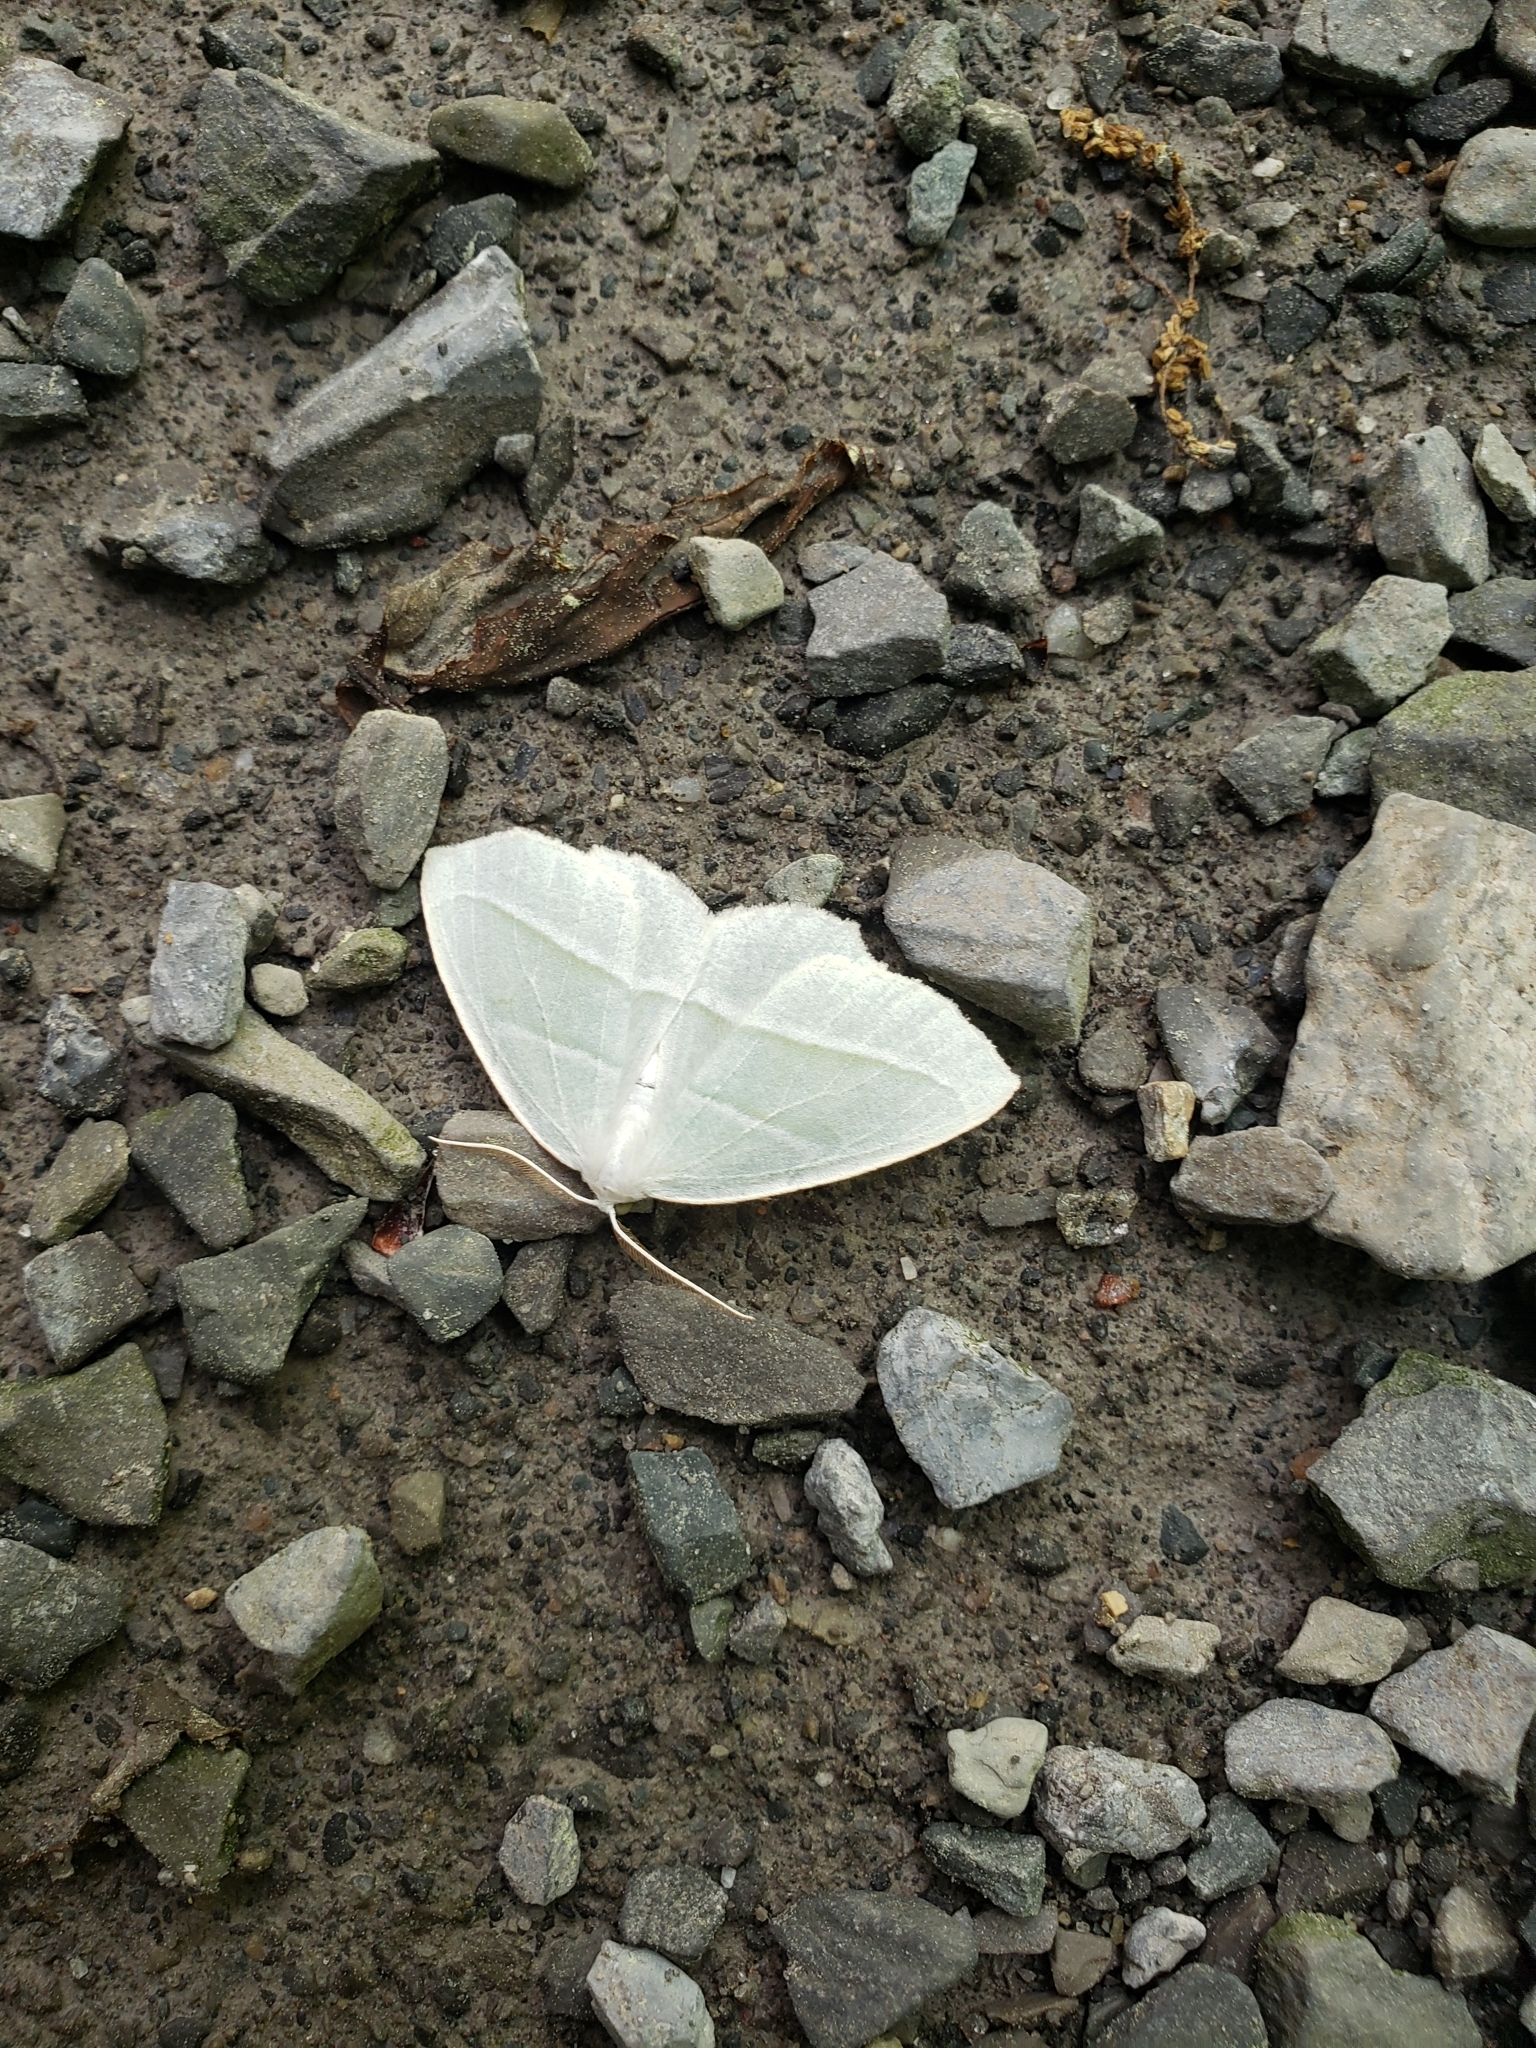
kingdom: Animalia
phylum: Arthropoda
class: Insecta
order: Lepidoptera
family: Geometridae
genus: Campaea
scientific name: Campaea perlata
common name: Fringed looper
